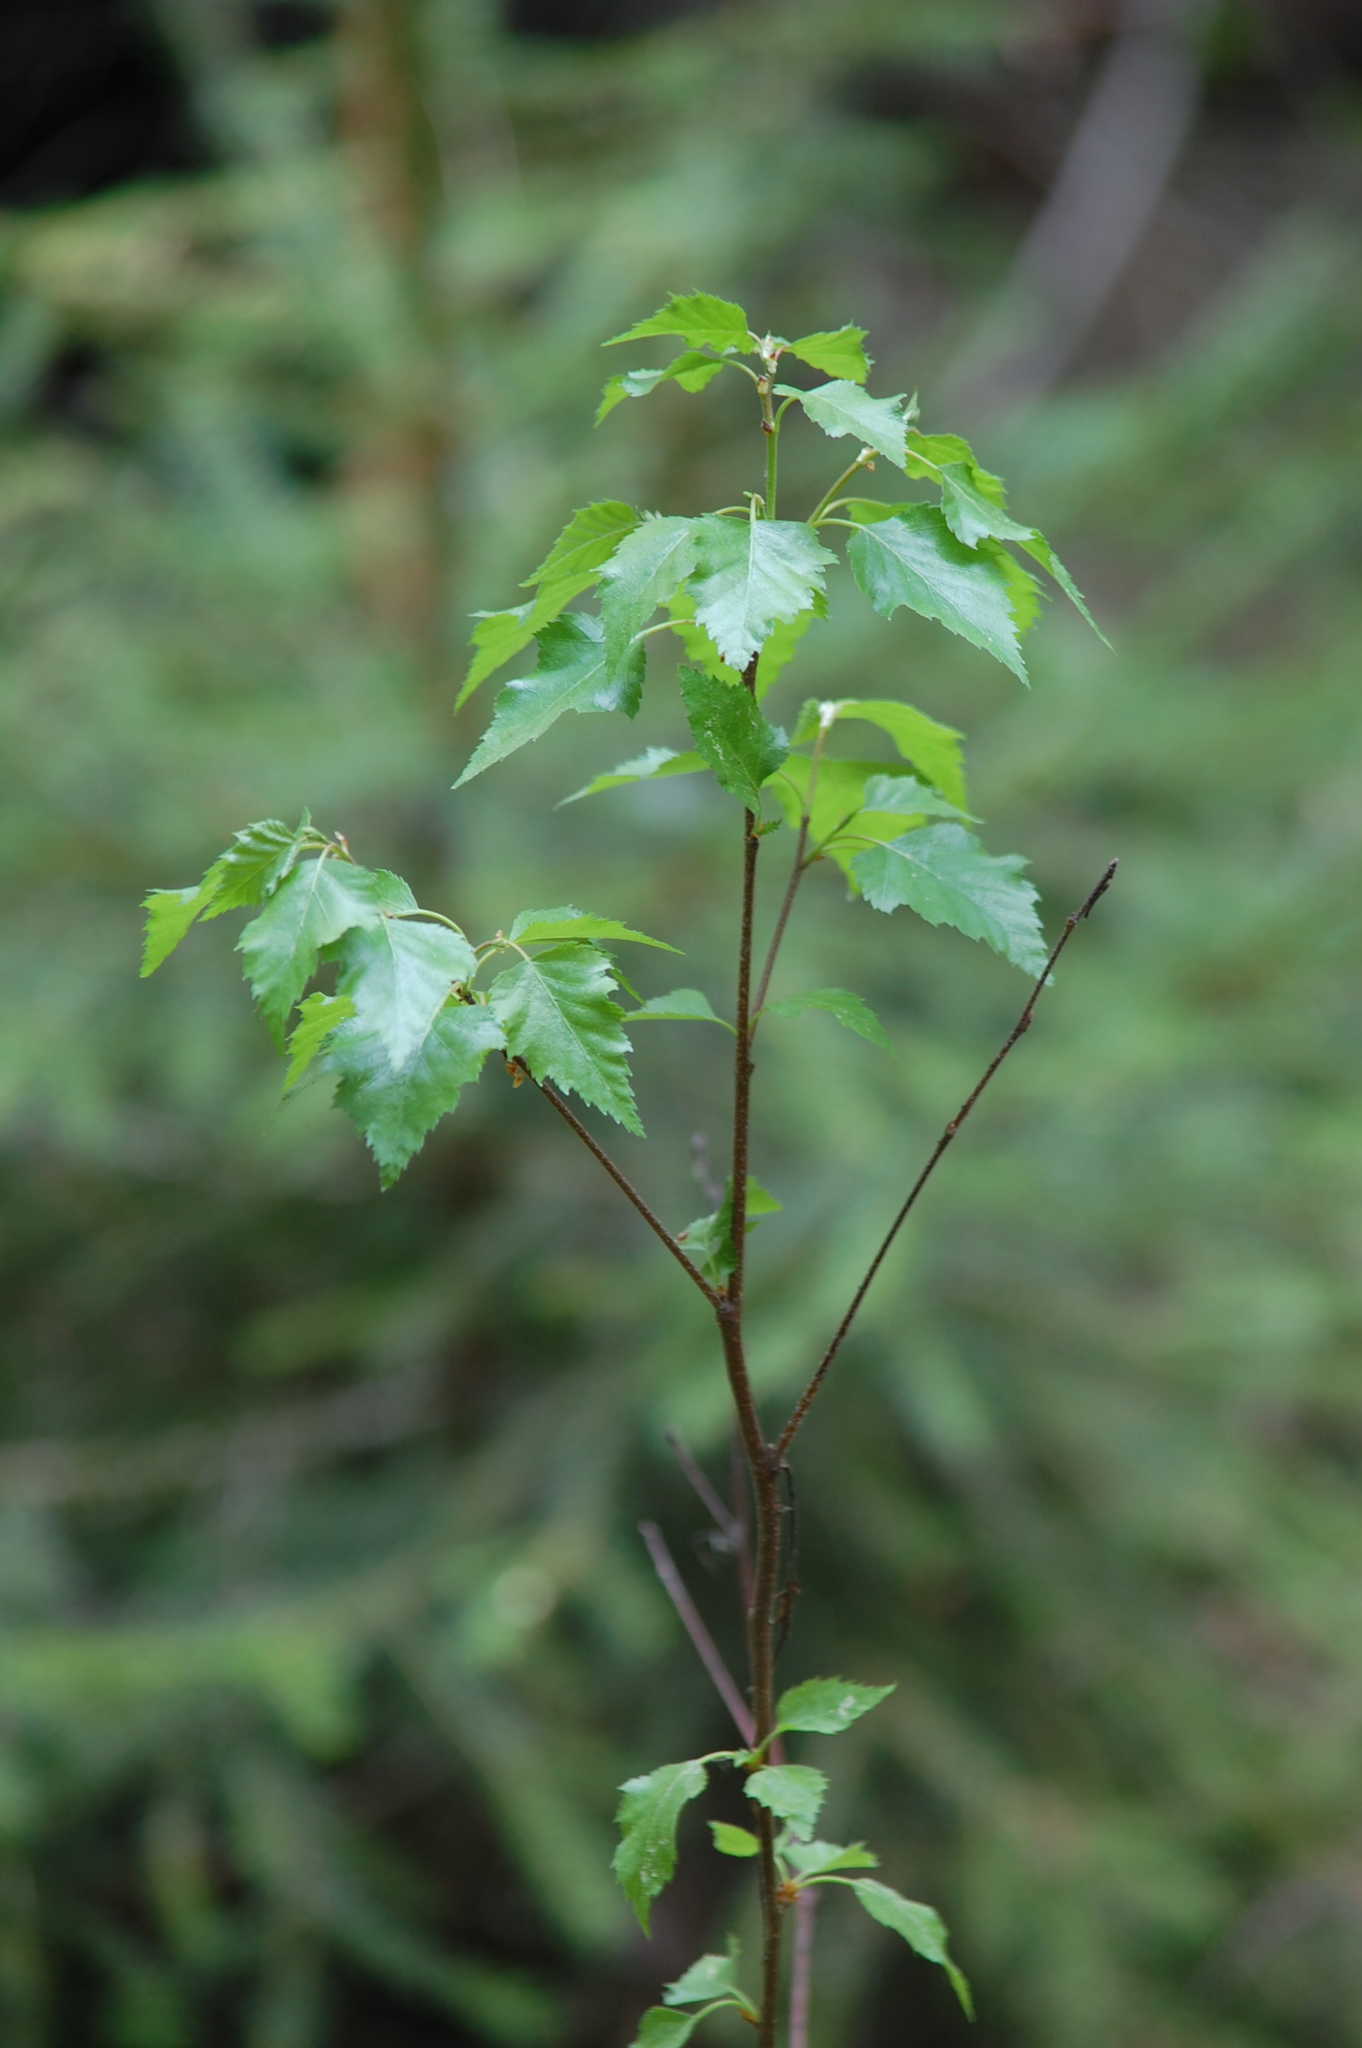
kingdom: Plantae
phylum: Tracheophyta
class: Magnoliopsida
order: Fagales
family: Betulaceae
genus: Betula
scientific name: Betula pendula
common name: Silver birch
